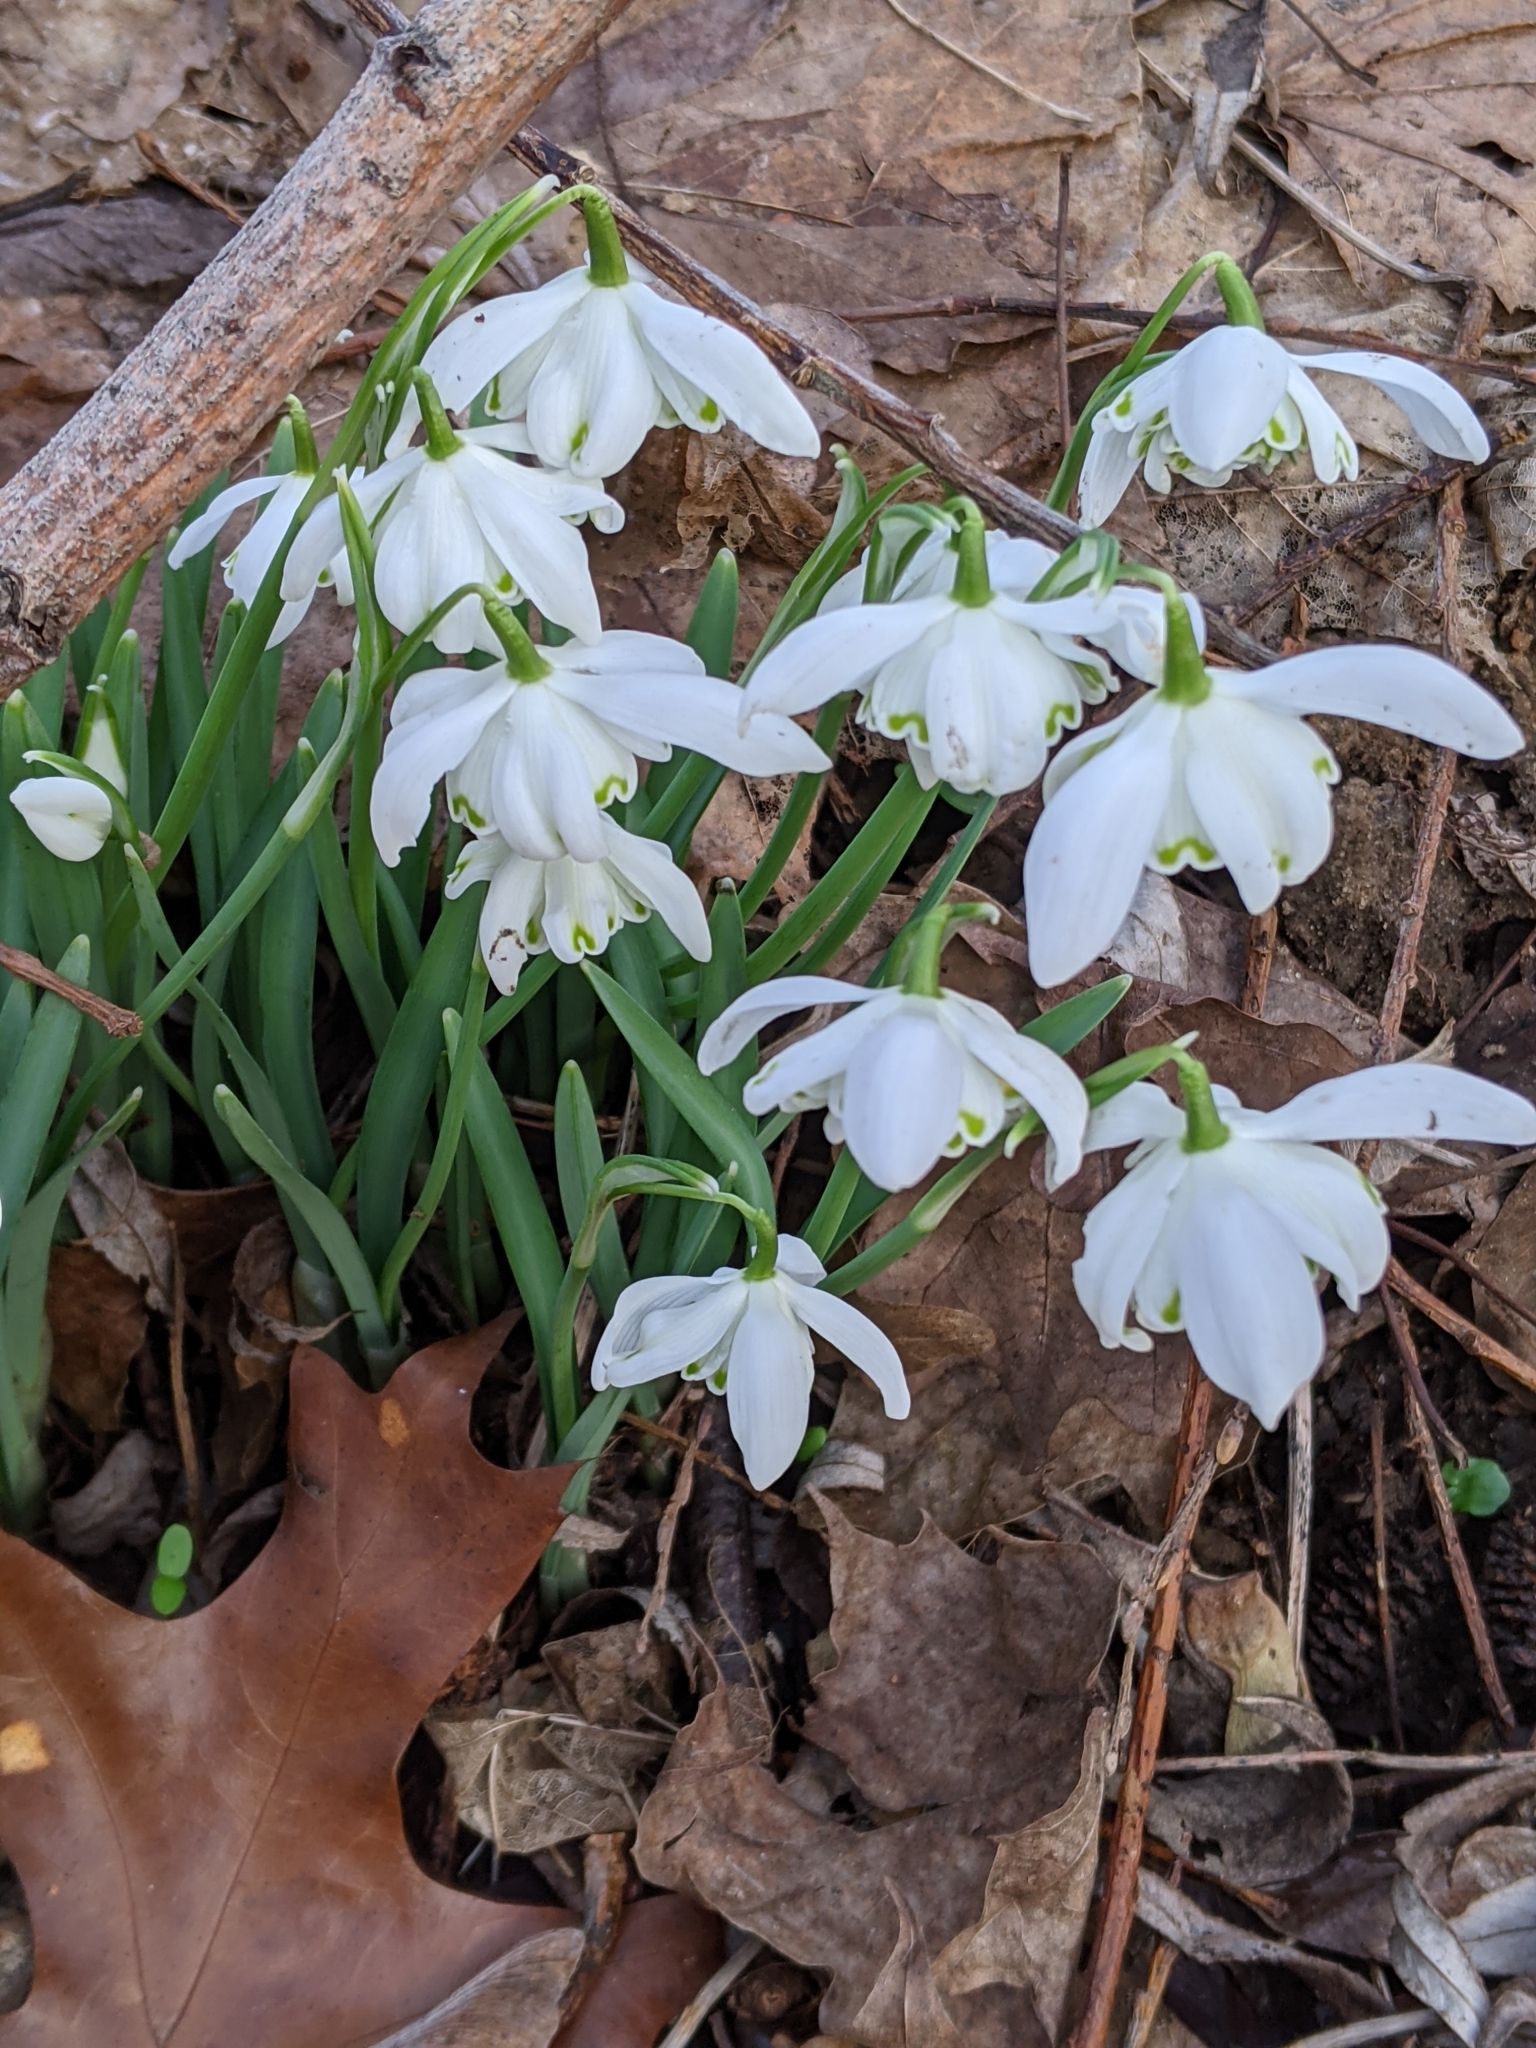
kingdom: Plantae
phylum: Tracheophyta
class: Liliopsida
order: Asparagales
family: Amaryllidaceae
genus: Galanthus
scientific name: Galanthus nivalis
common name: Snowdrop
